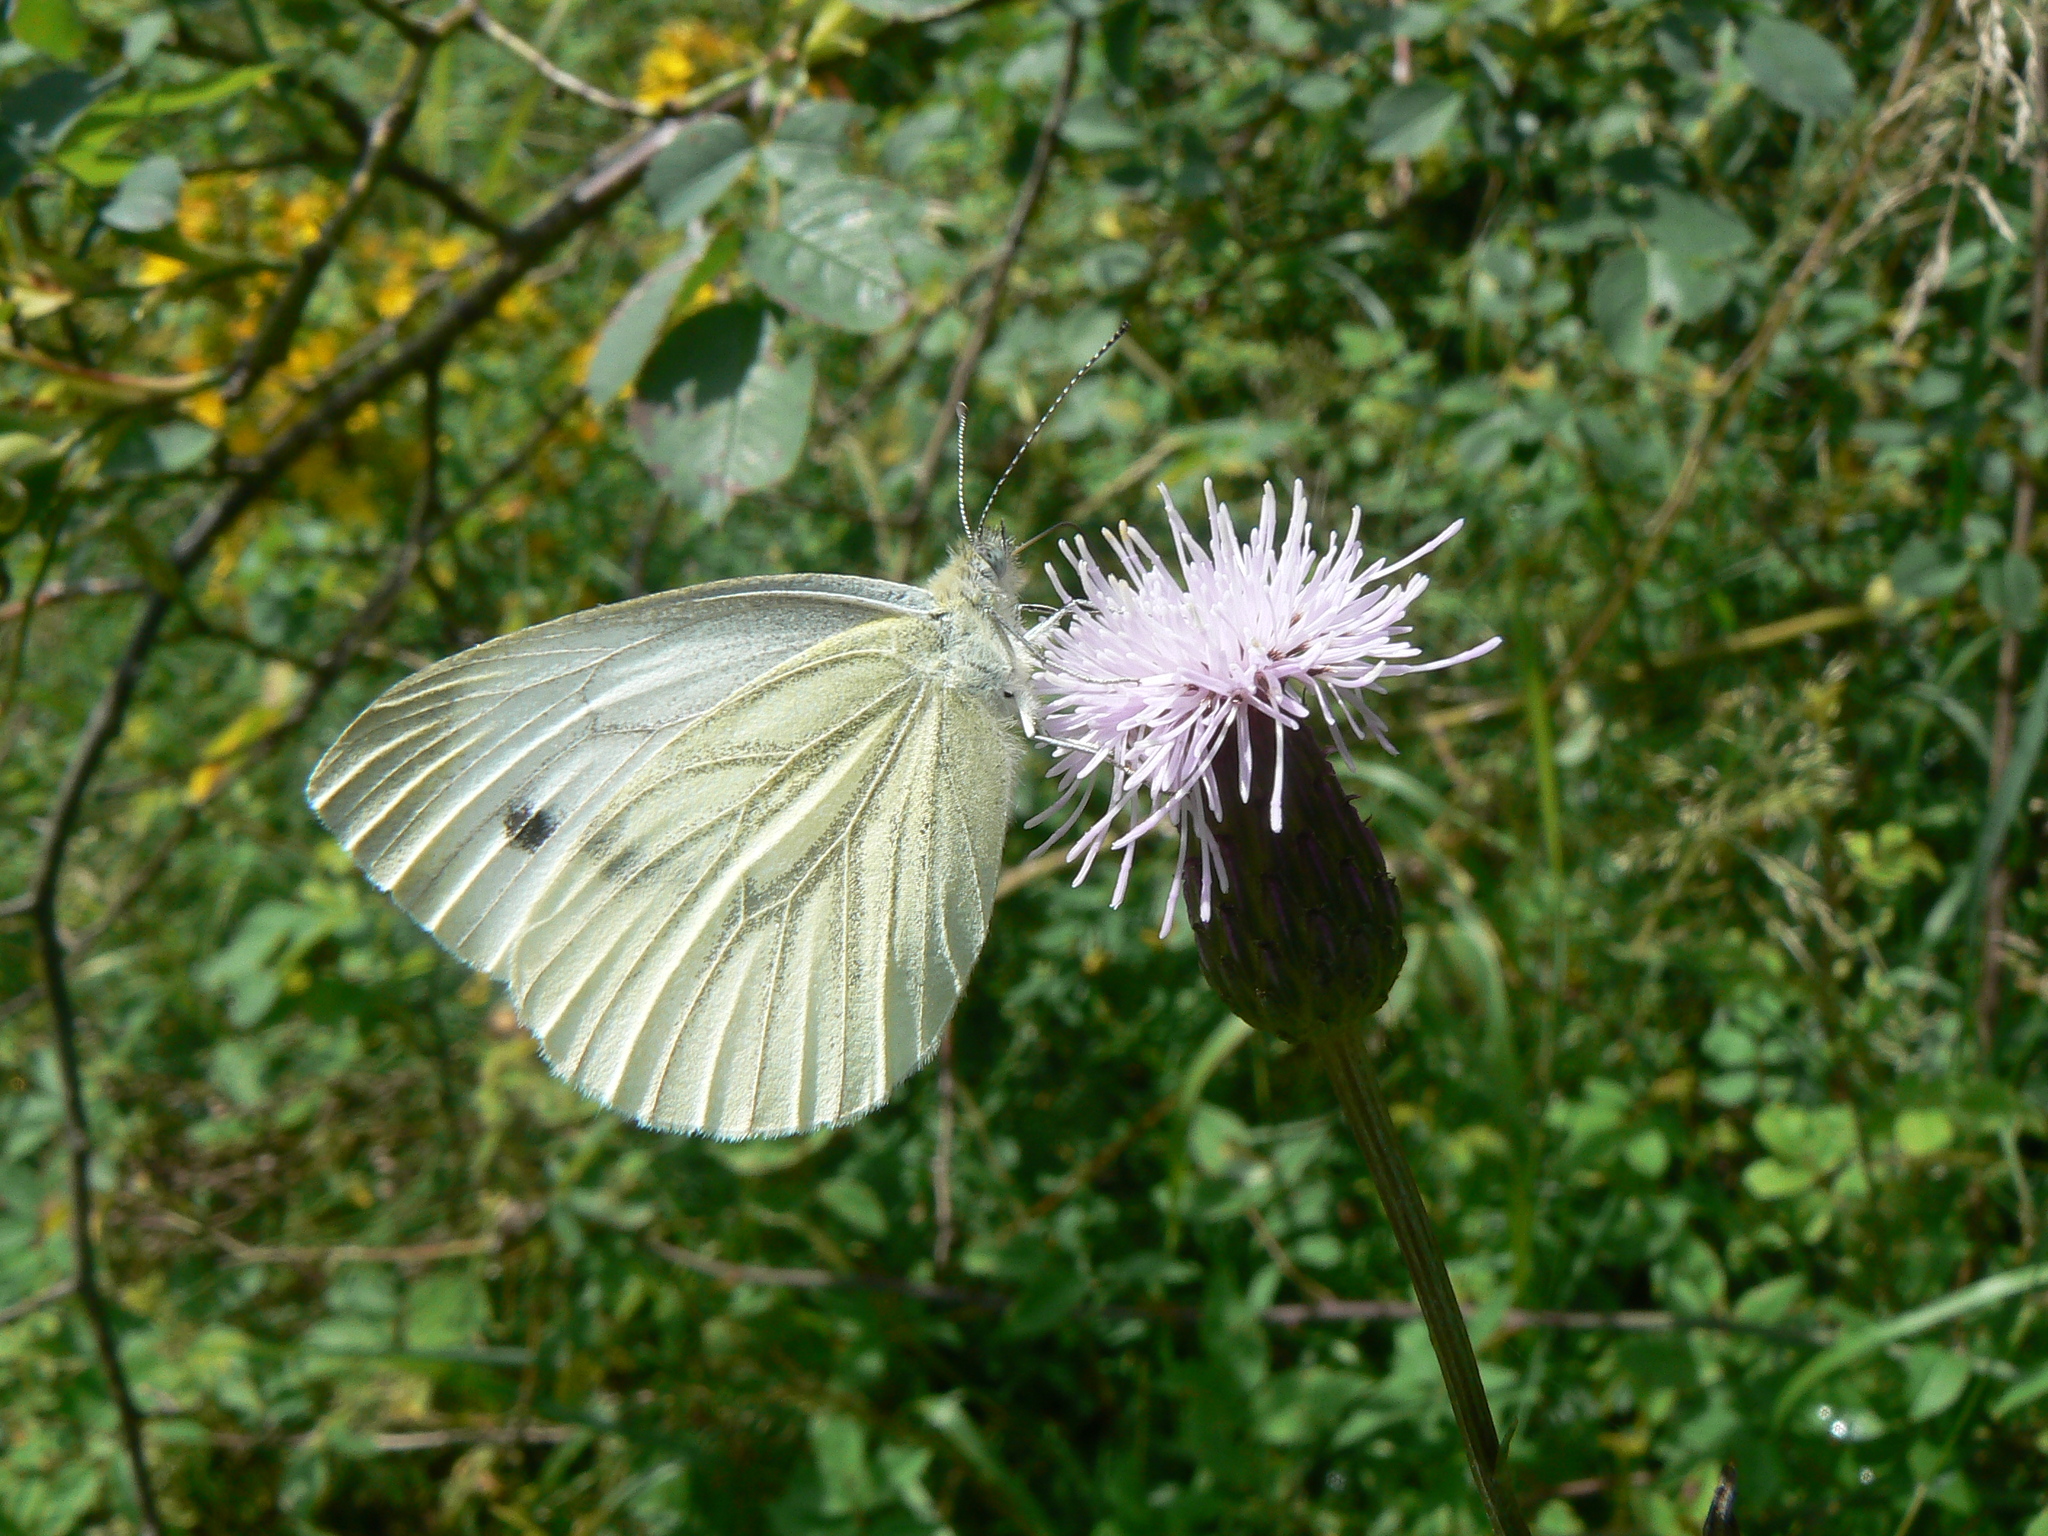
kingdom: Animalia
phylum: Arthropoda
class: Insecta
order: Lepidoptera
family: Pieridae
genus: Pieris
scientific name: Pieris napi
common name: Green-veined white
